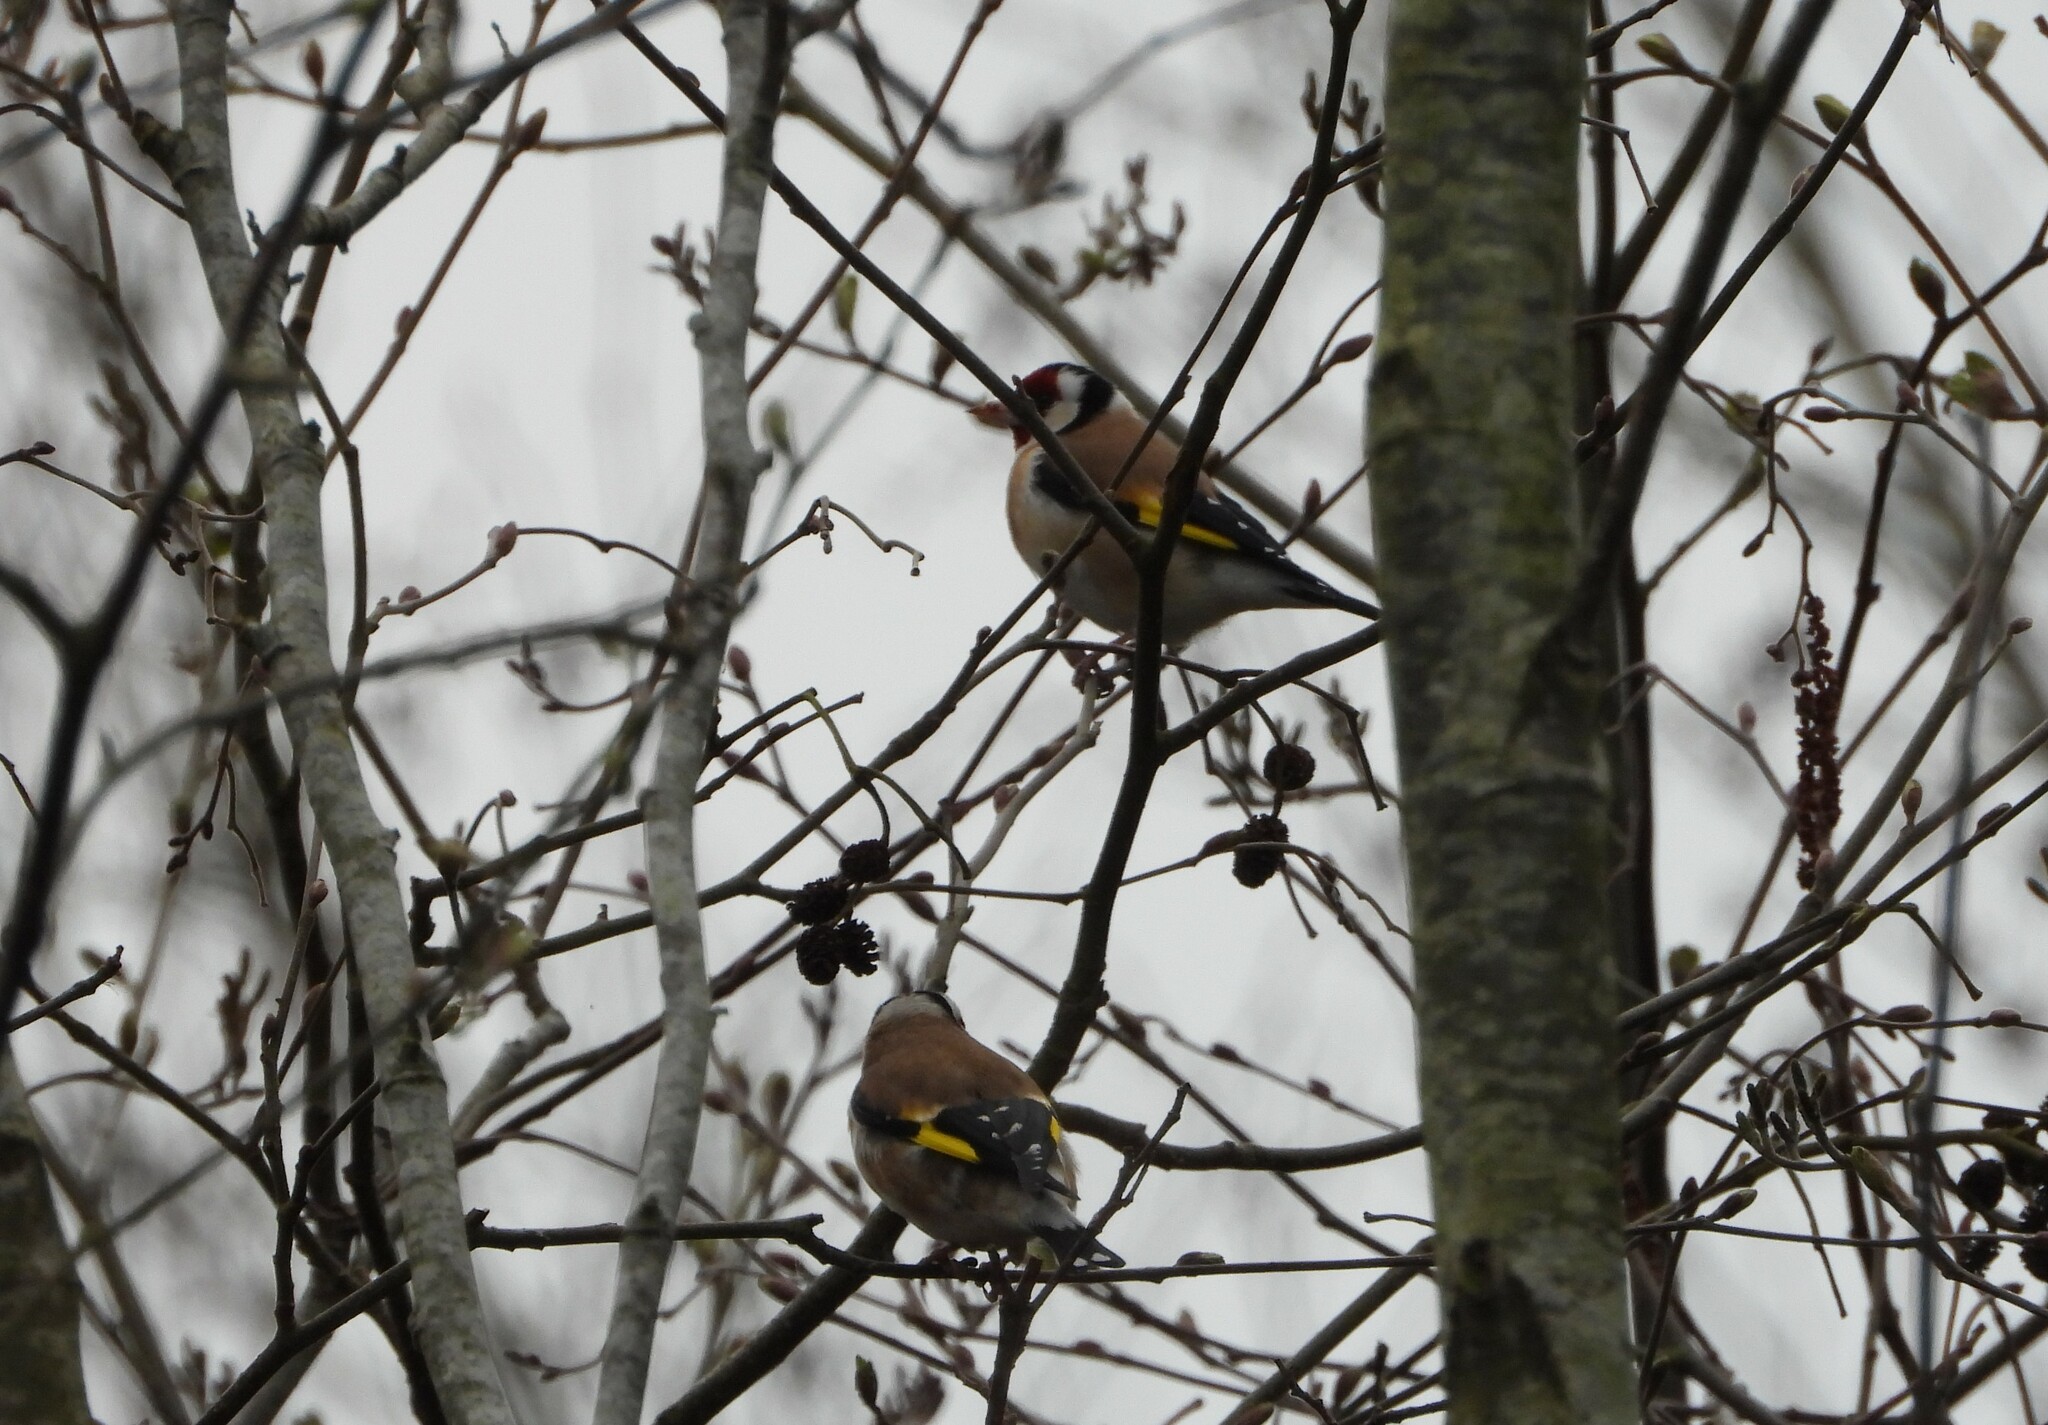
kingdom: Animalia
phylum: Chordata
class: Aves
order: Passeriformes
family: Fringillidae
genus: Carduelis
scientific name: Carduelis carduelis
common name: European goldfinch
